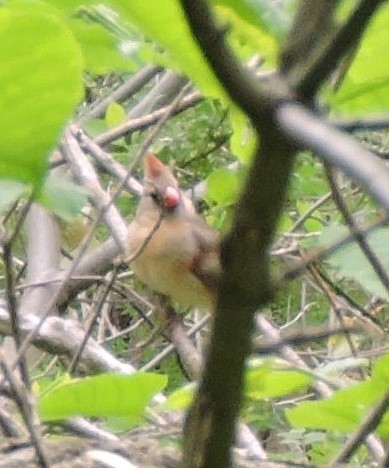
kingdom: Animalia
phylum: Chordata
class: Aves
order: Passeriformes
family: Cardinalidae
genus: Cardinalis
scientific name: Cardinalis cardinalis
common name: Northern cardinal
